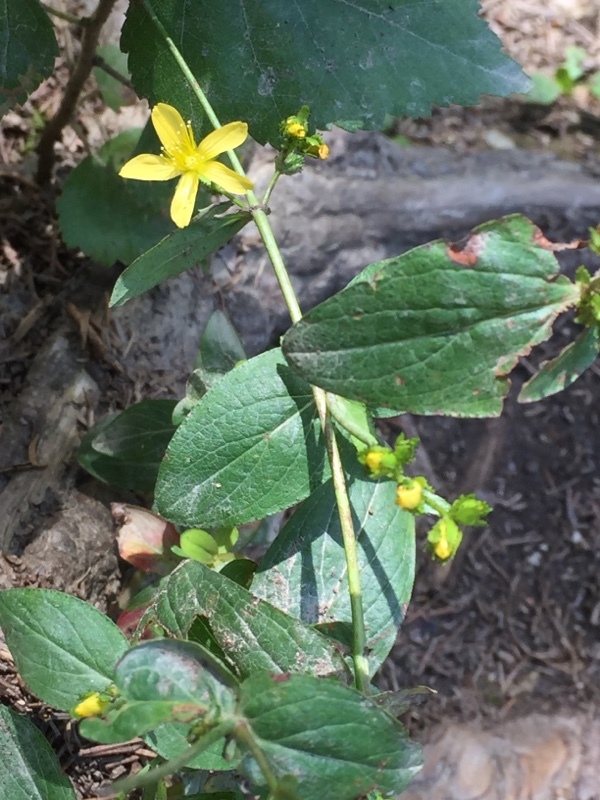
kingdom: Plantae
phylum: Tracheophyta
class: Magnoliopsida
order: Malpighiales
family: Hypericaceae
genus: Hypericum
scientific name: Hypericum montanum
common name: Pale st. john's-wort
